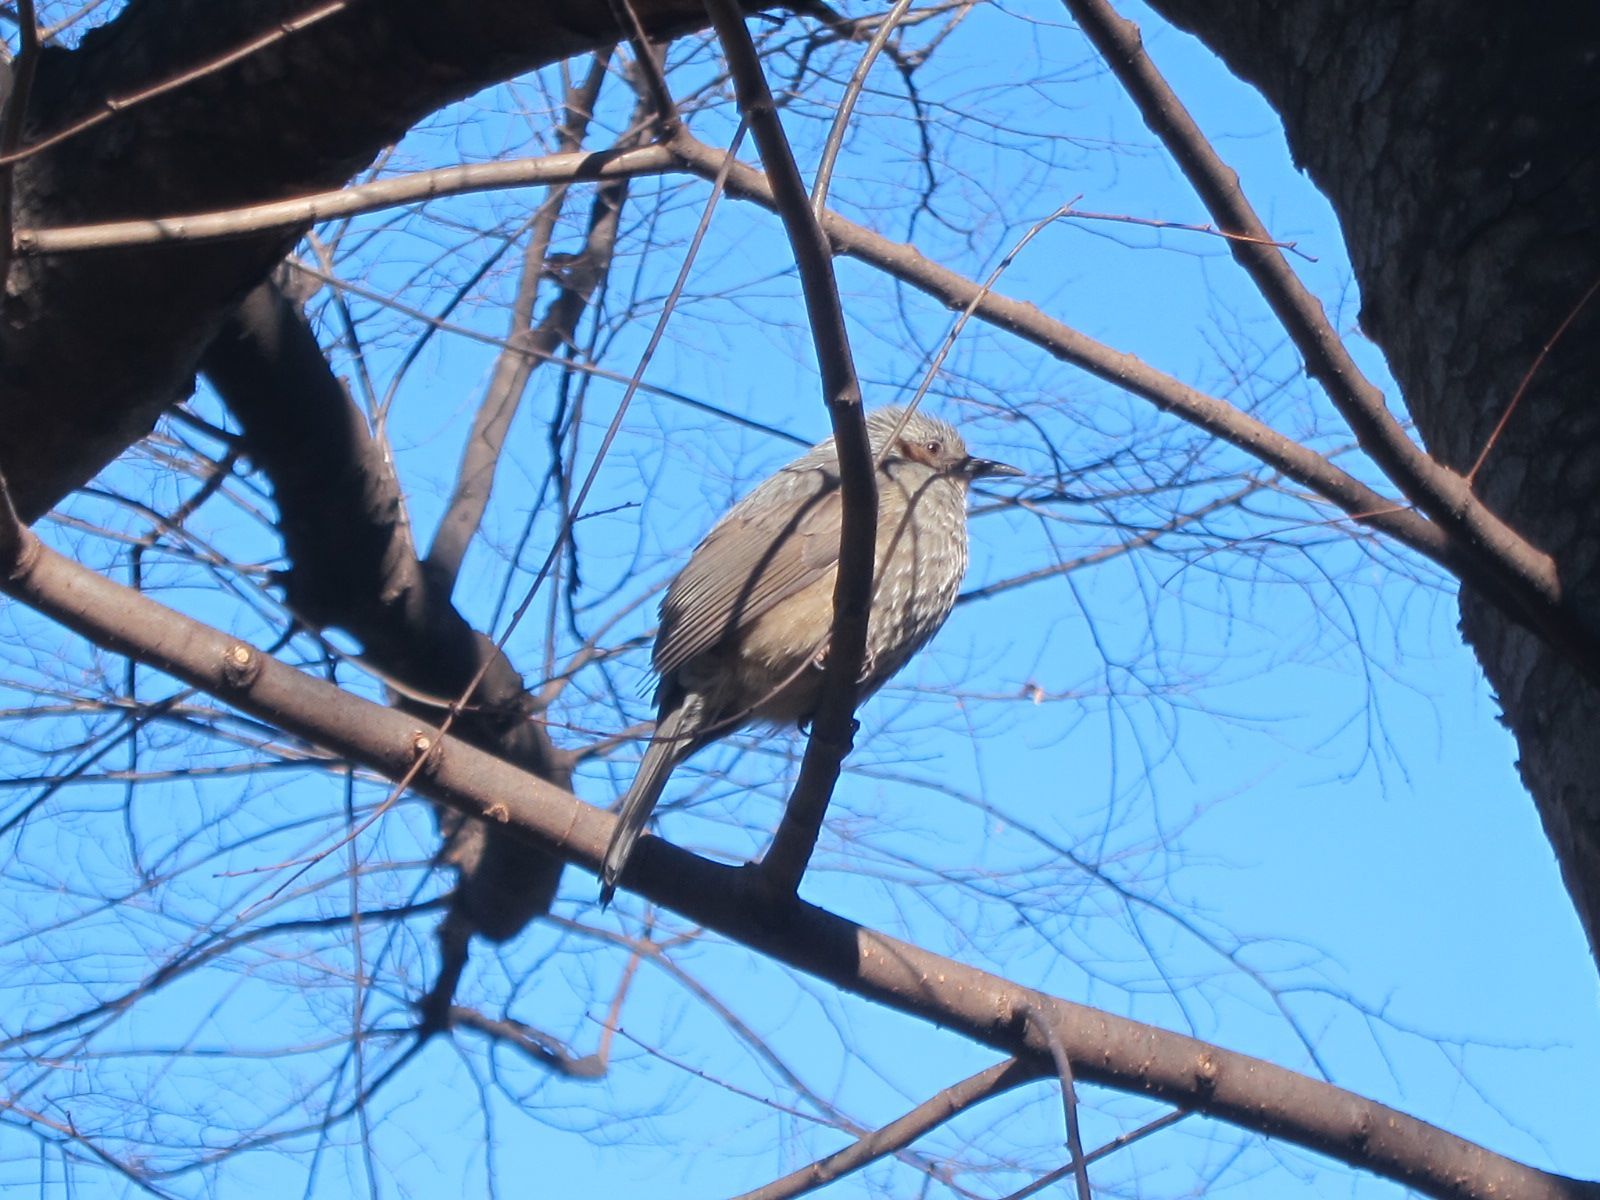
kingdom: Animalia
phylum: Chordata
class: Aves
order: Passeriformes
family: Pycnonotidae
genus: Hypsipetes
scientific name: Hypsipetes amaurotis
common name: Brown-eared bulbul
